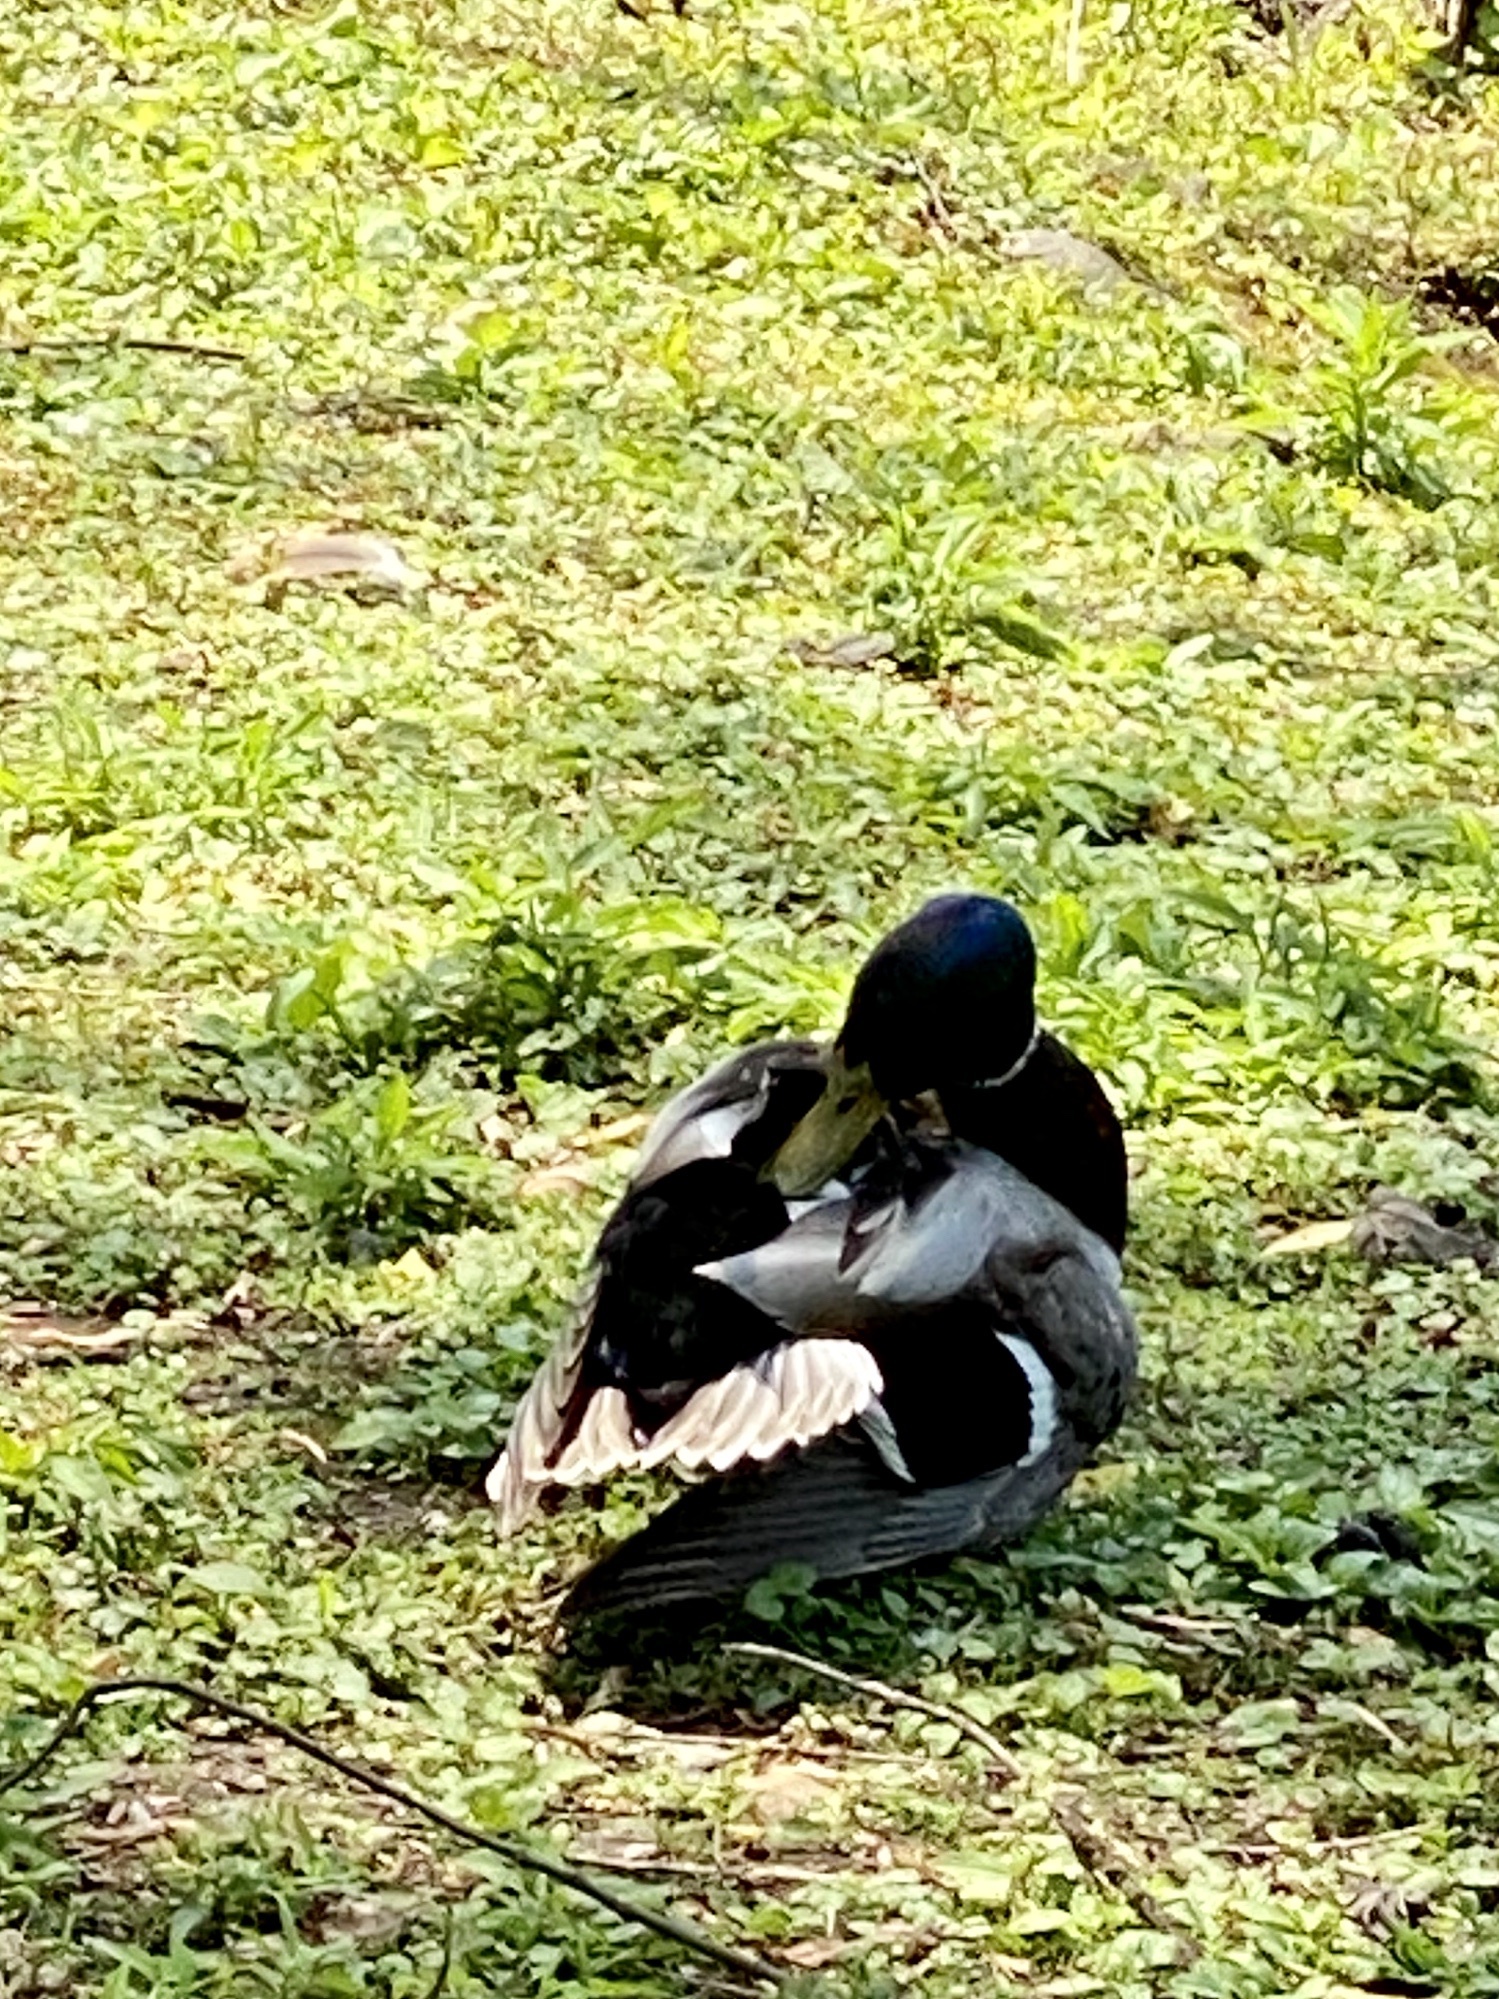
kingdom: Animalia
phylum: Chordata
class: Aves
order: Anseriformes
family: Anatidae
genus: Anas
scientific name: Anas platyrhynchos
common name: Mallard
